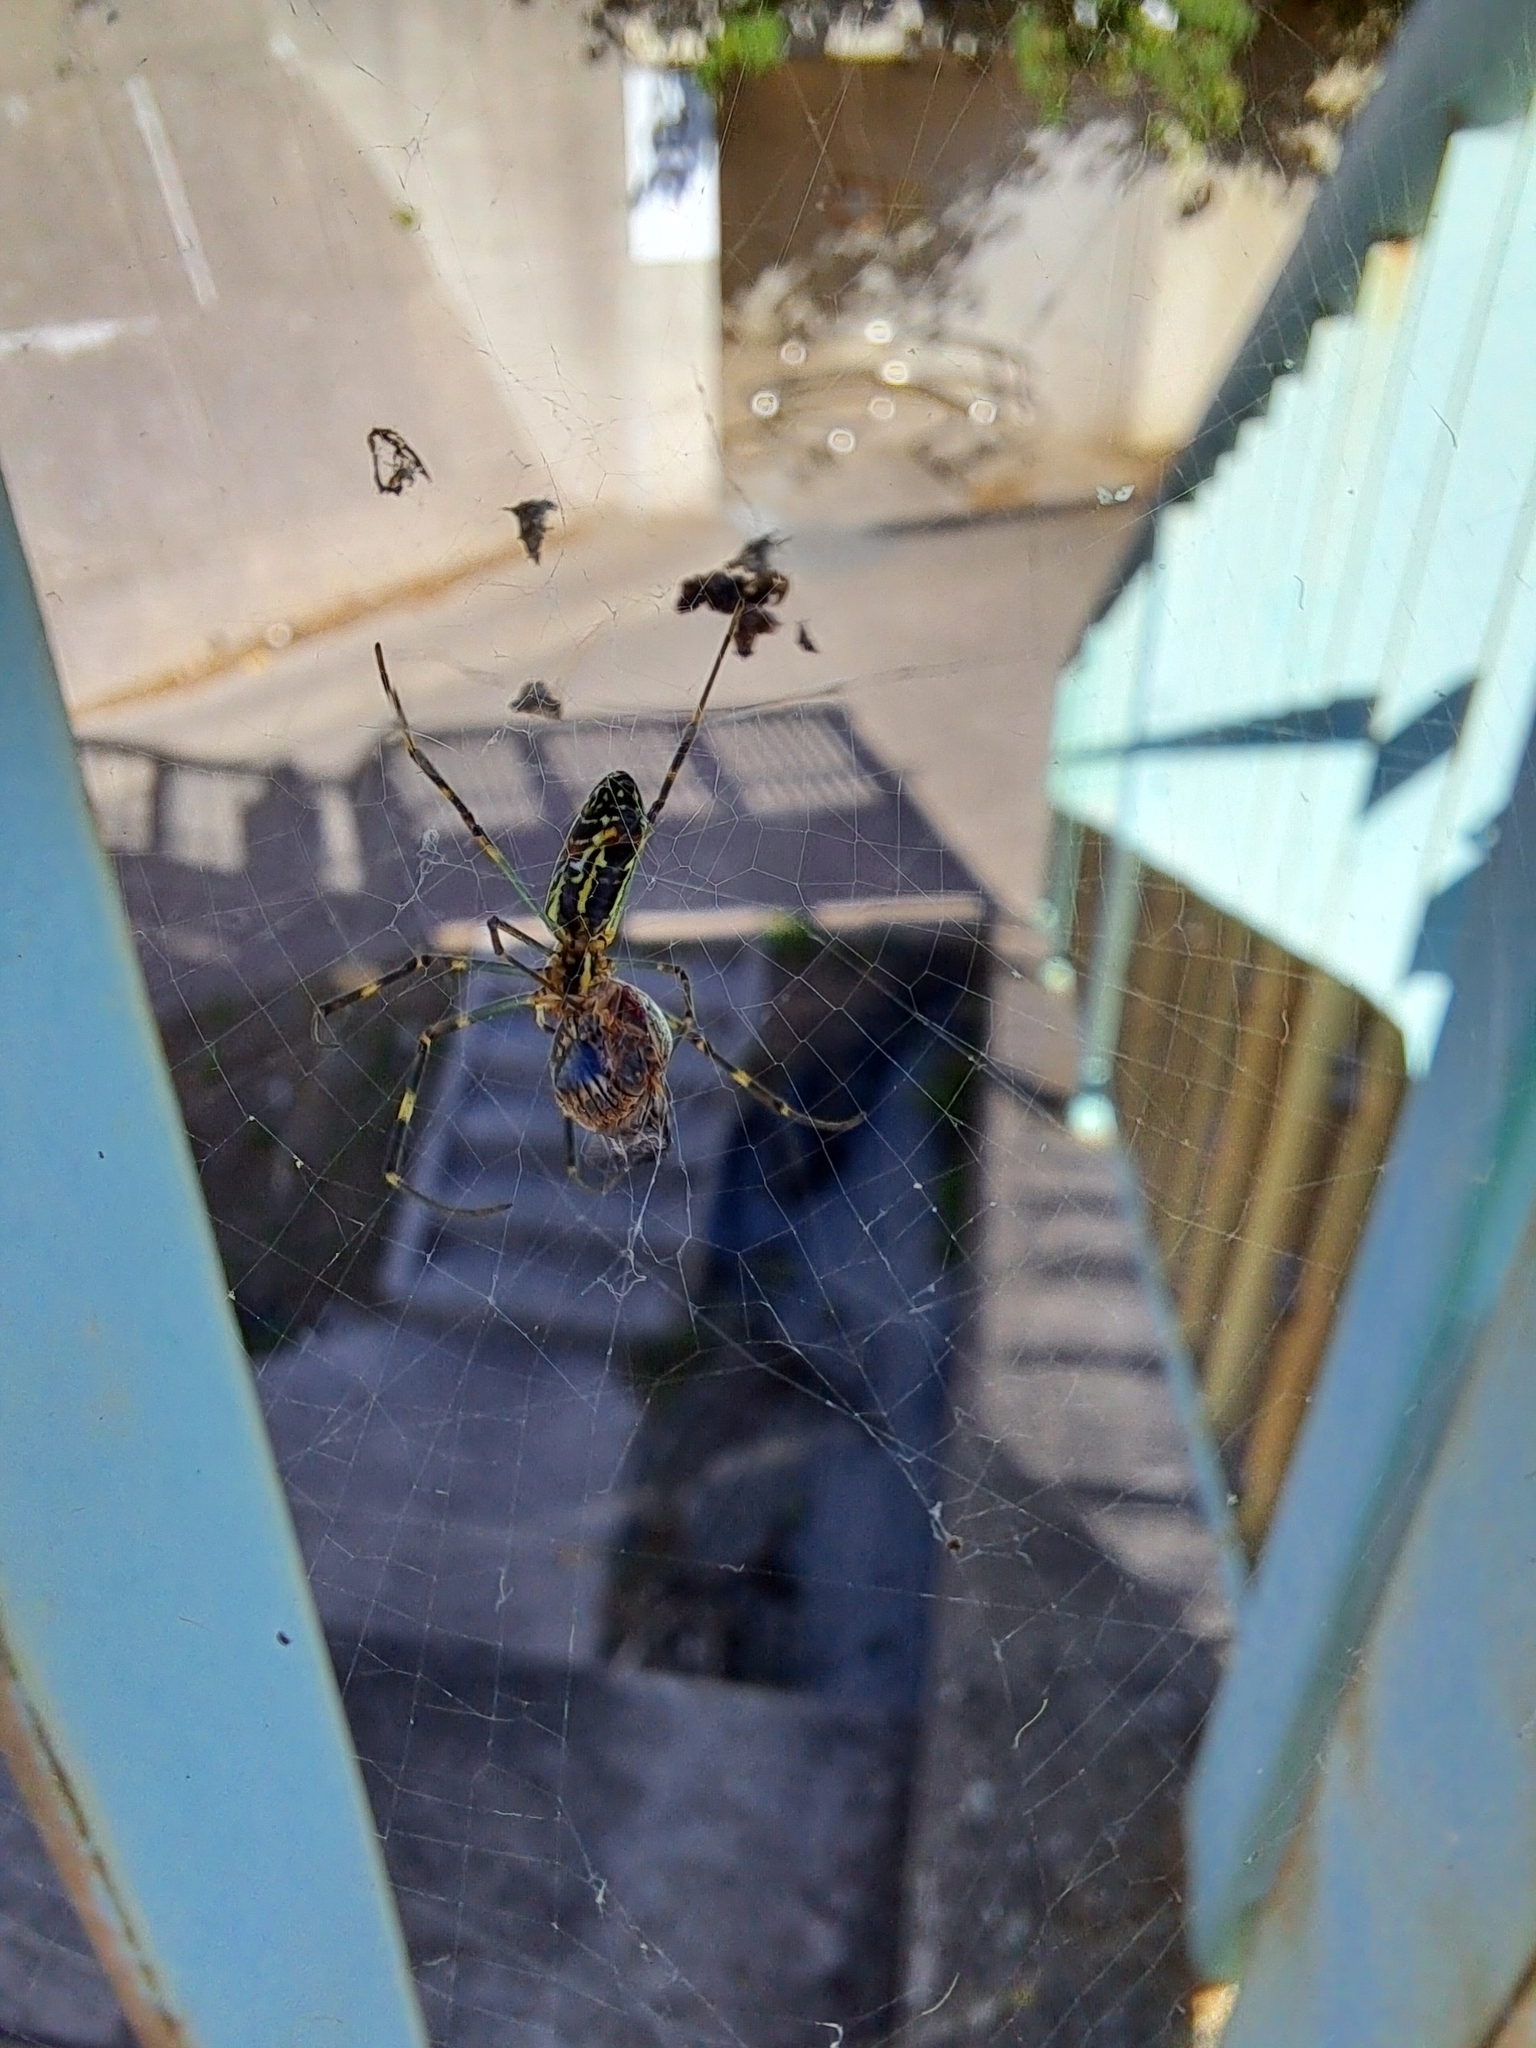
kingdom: Animalia
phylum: Arthropoda
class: Arachnida
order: Araneae
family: Araneidae
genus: Trichonephila
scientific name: Trichonephila clavata
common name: Jorō spider
